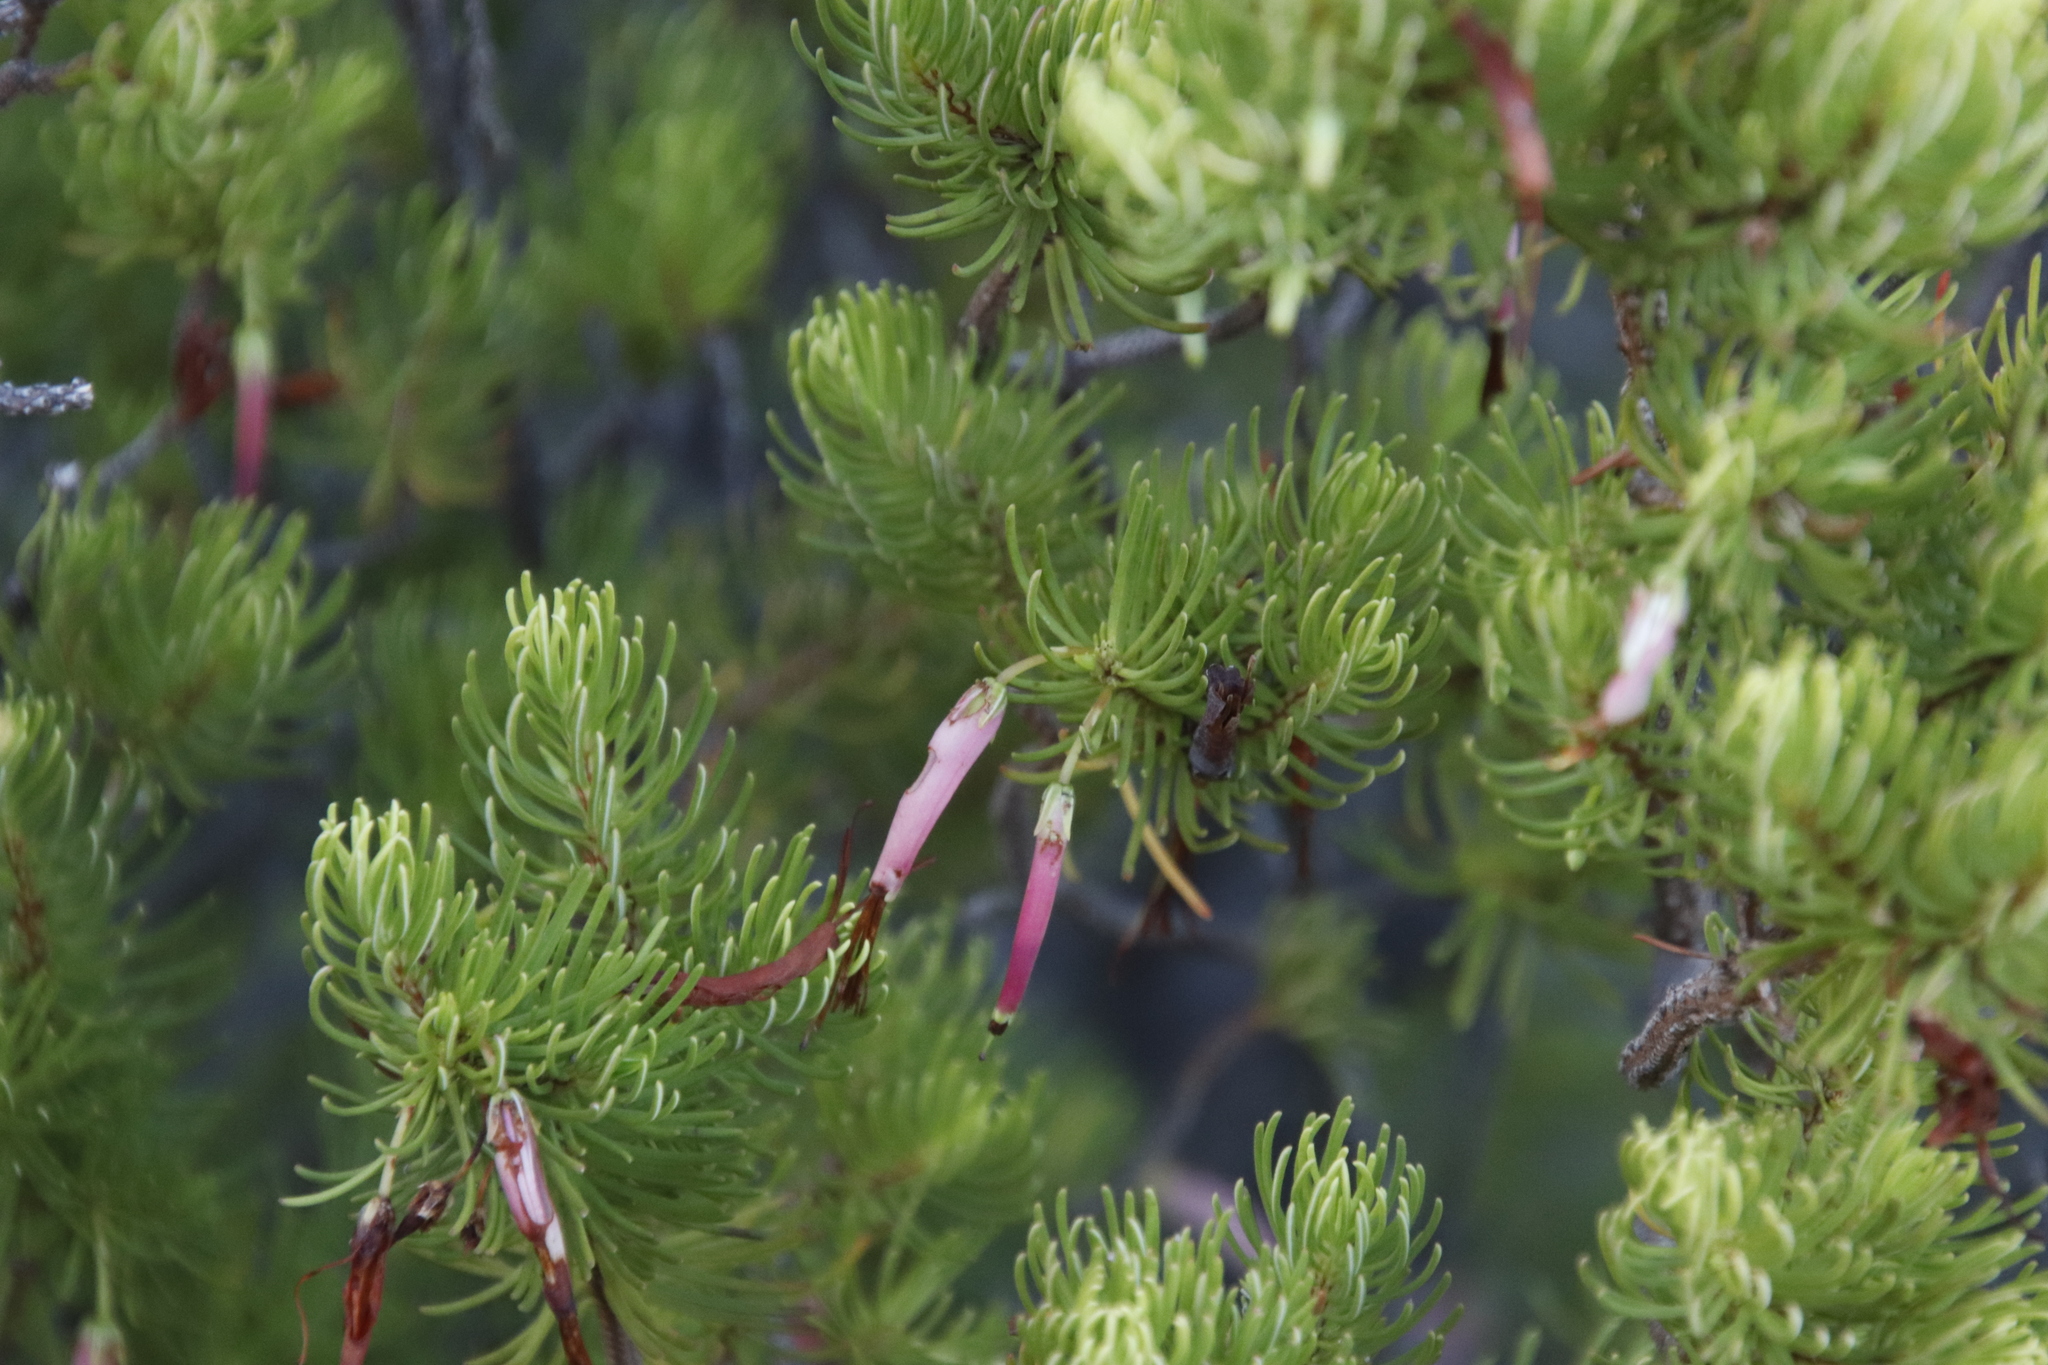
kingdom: Plantae
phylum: Tracheophyta
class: Magnoliopsida
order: Ericales
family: Ericaceae
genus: Erica
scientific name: Erica plukenetii
